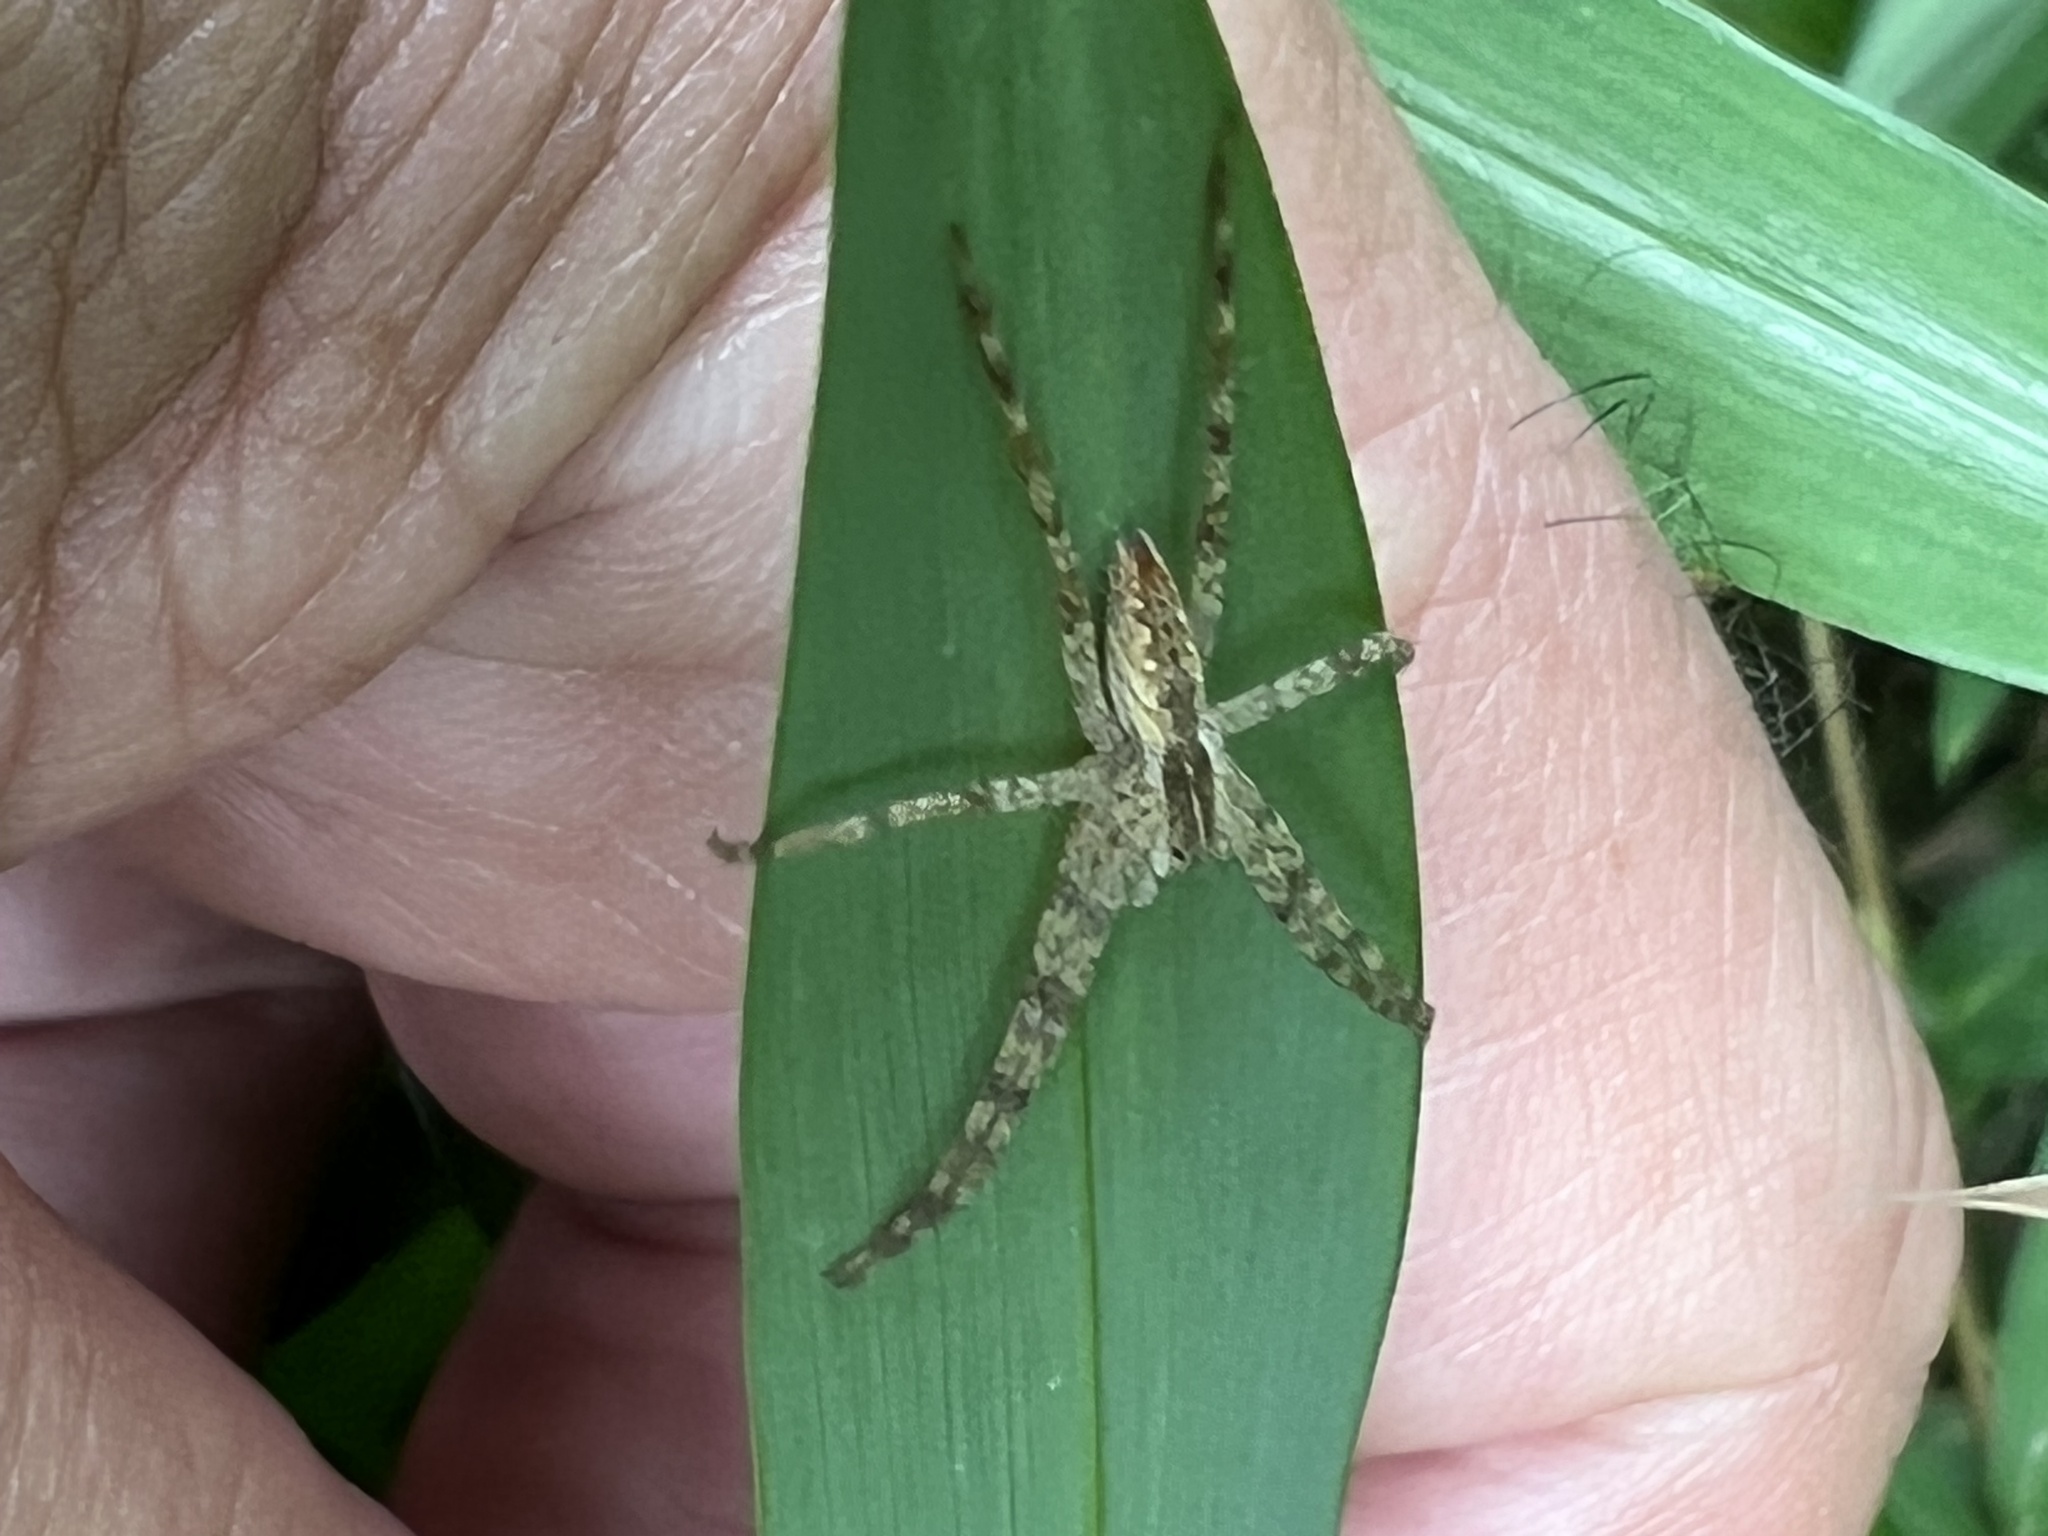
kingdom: Animalia
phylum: Arthropoda
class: Arachnida
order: Araneae
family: Pisauridae
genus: Pisaurina
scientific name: Pisaurina mira
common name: American nursery web spider
